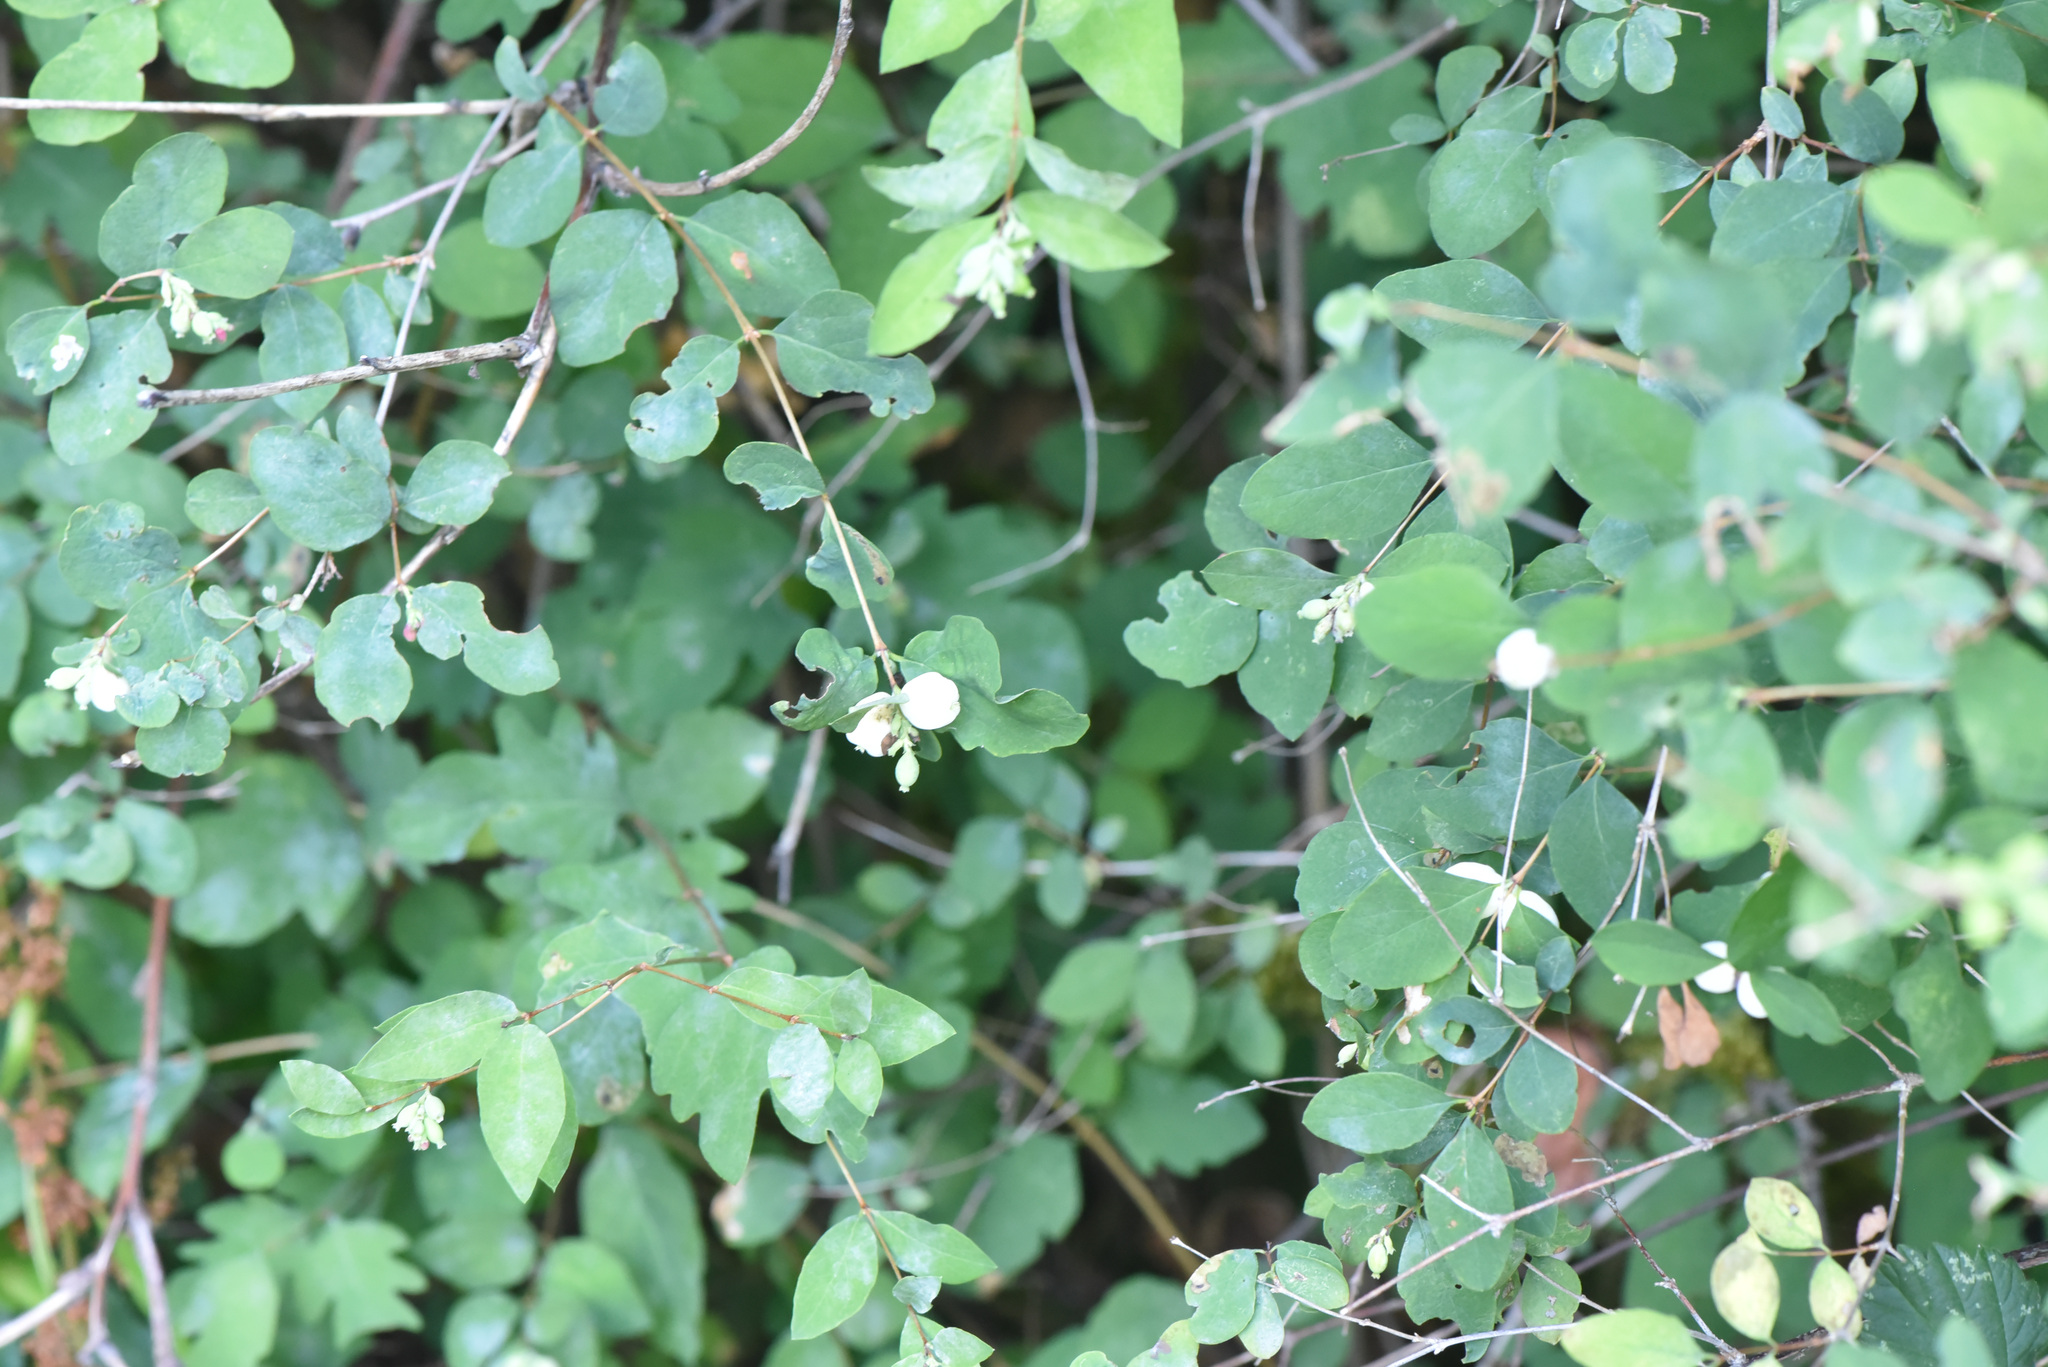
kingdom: Plantae
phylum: Tracheophyta
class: Magnoliopsida
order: Dipsacales
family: Caprifoliaceae
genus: Symphoricarpos
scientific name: Symphoricarpos albus
